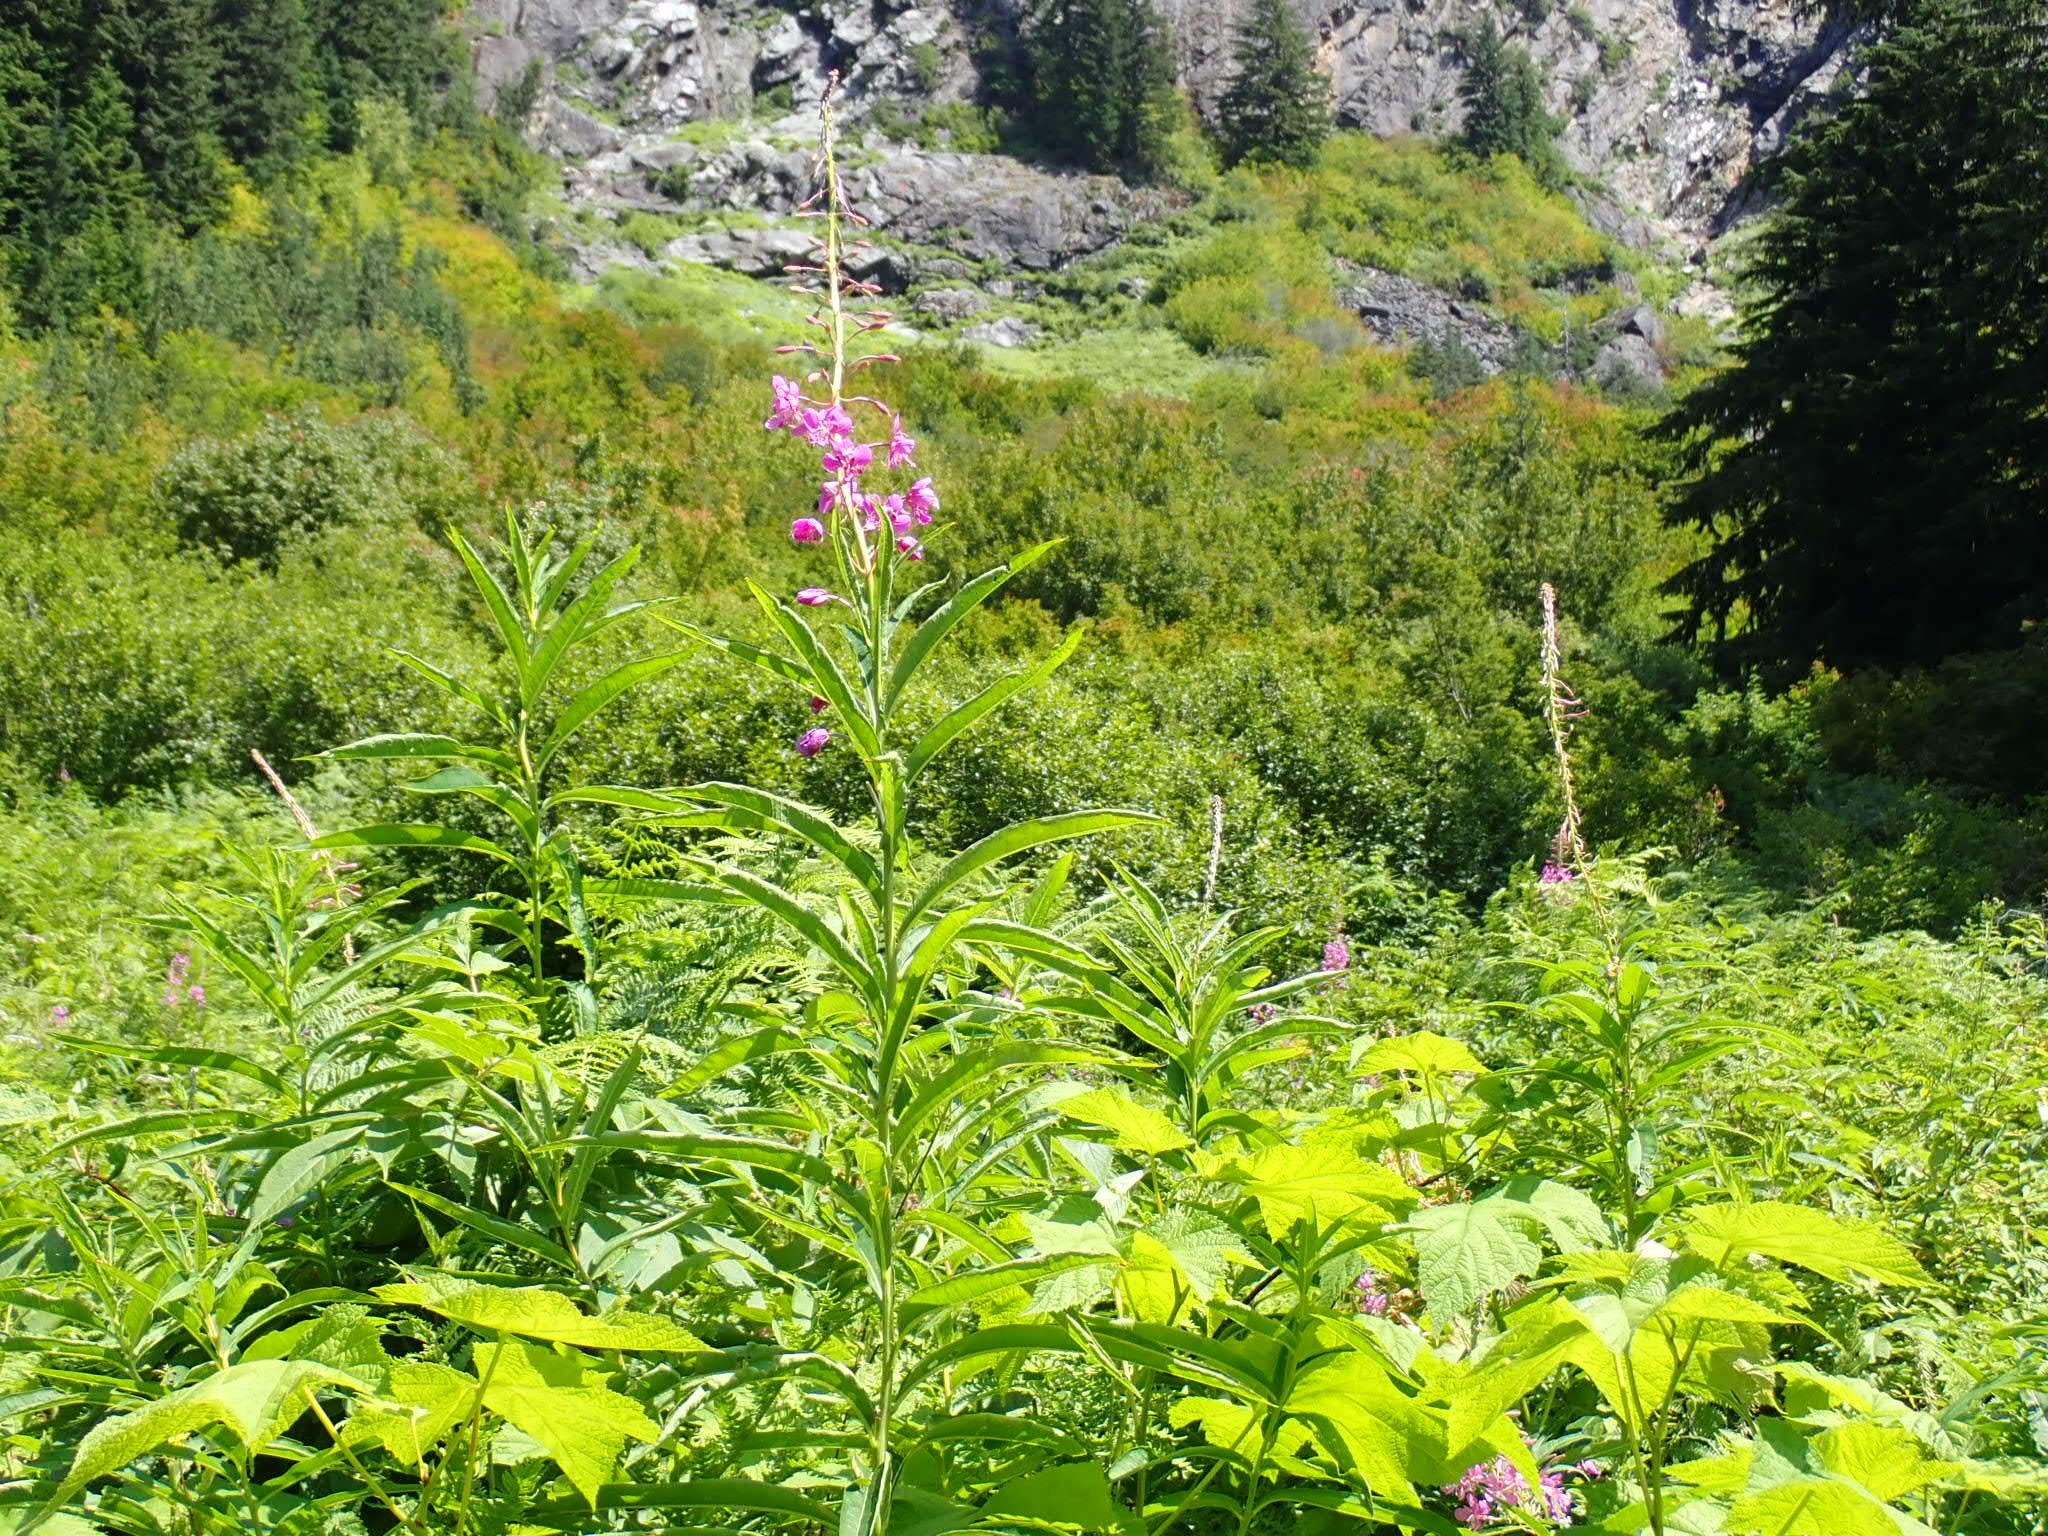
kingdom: Plantae
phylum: Tracheophyta
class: Magnoliopsida
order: Myrtales
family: Onagraceae
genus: Chamaenerion
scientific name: Chamaenerion angustifolium
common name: Fireweed
